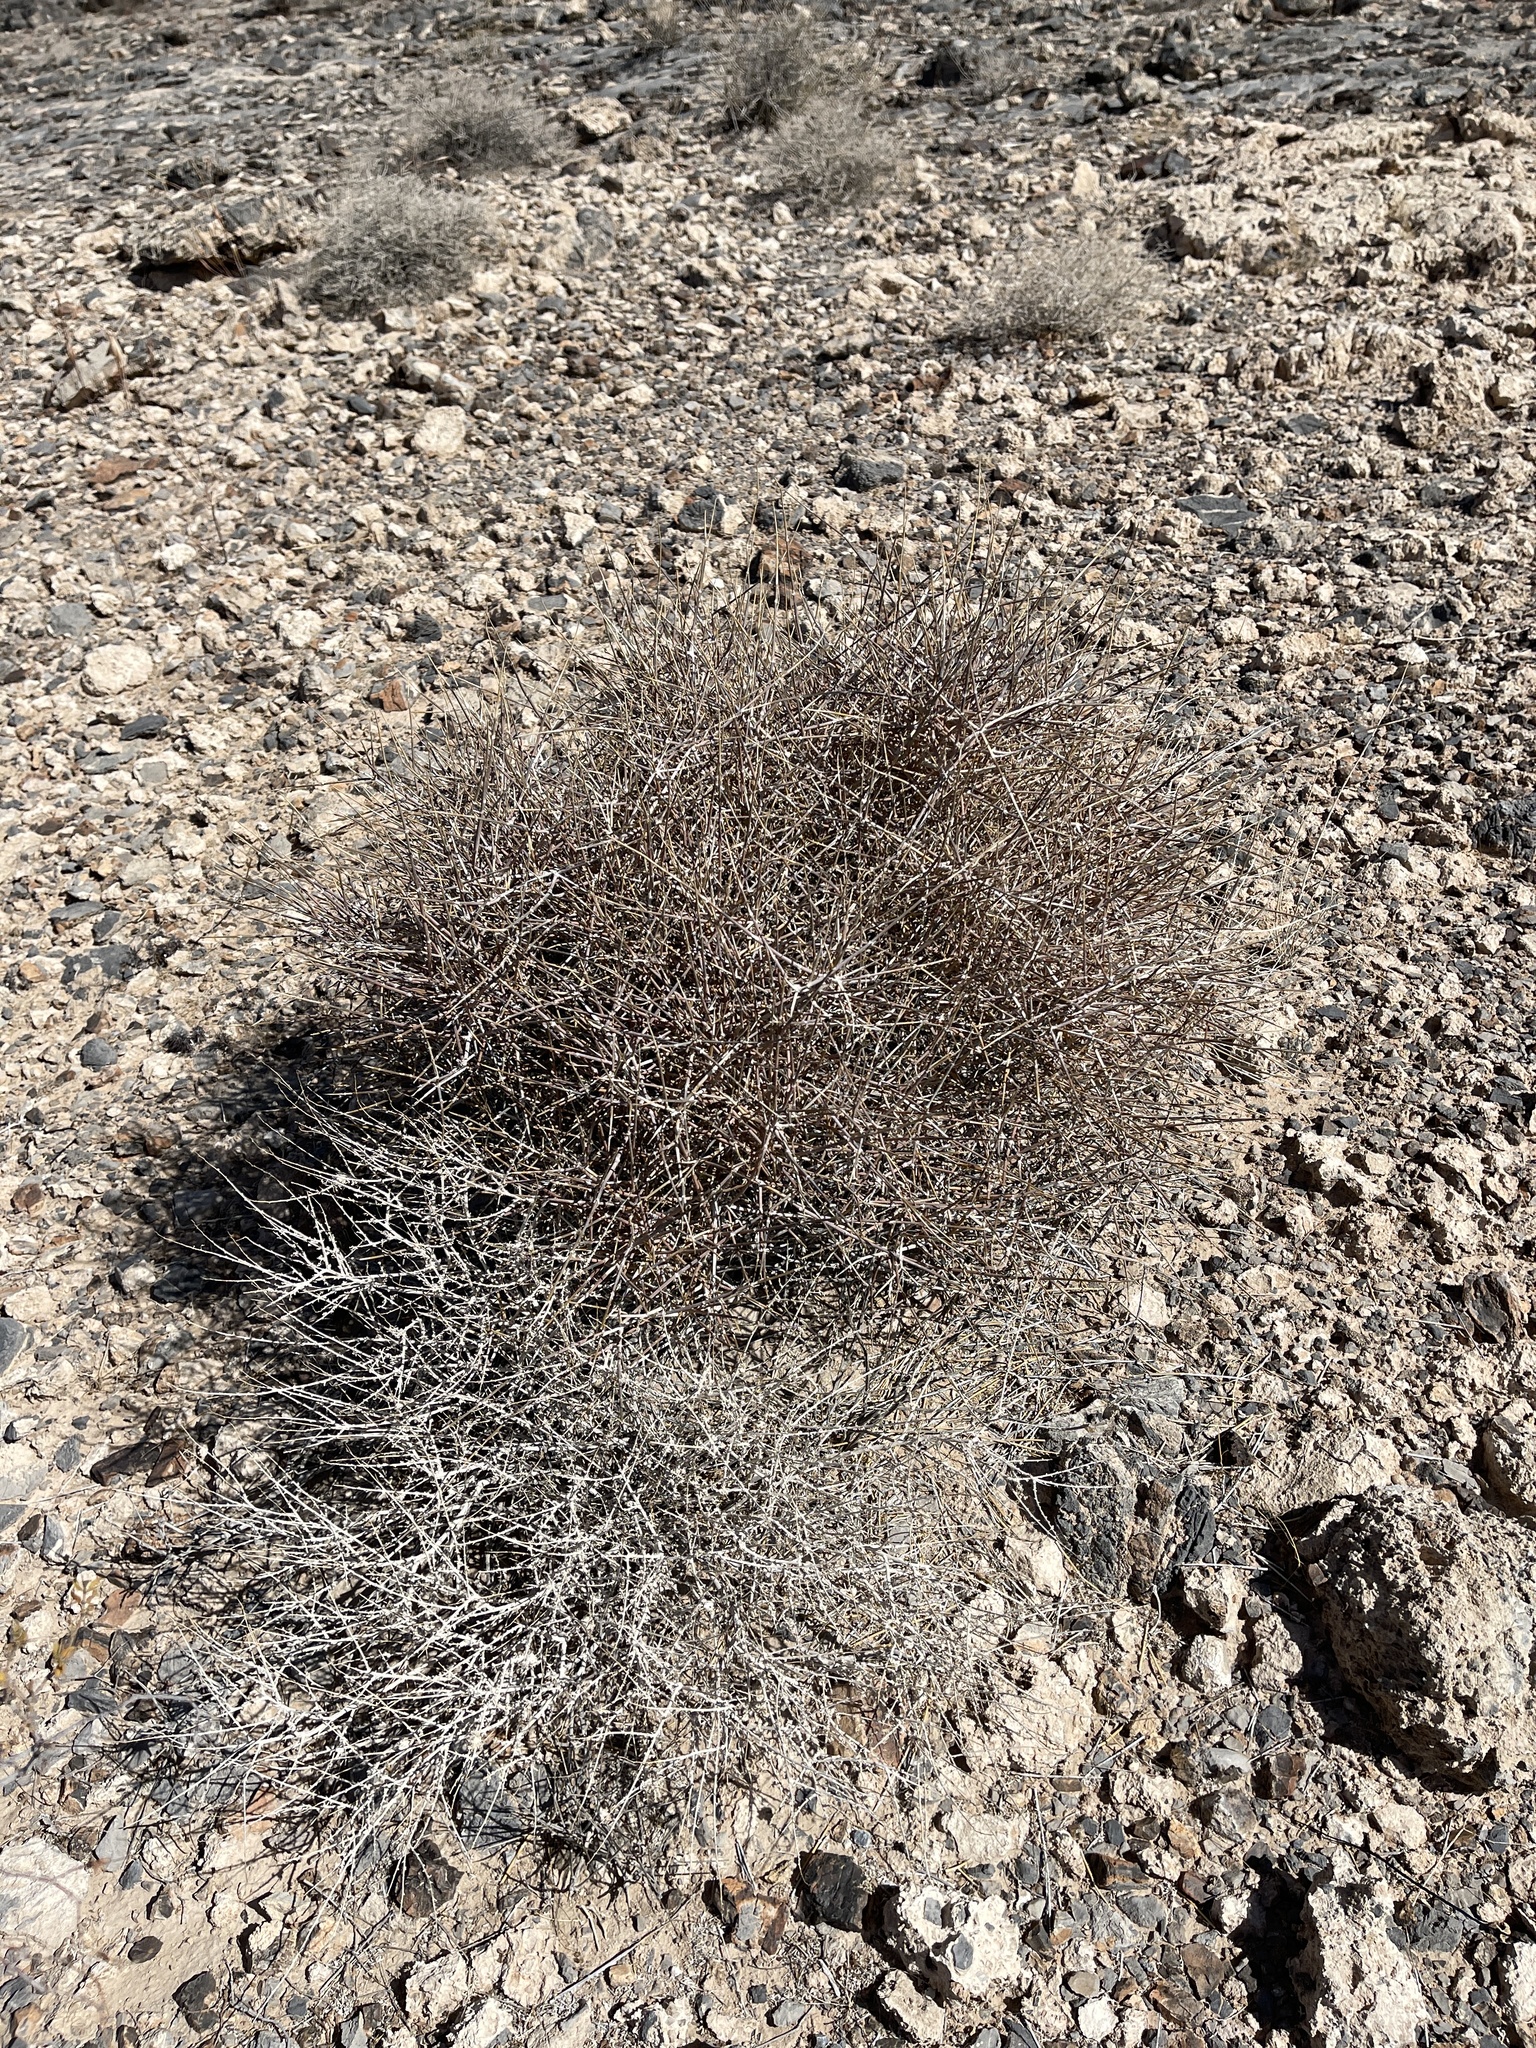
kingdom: Plantae
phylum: Tracheophyta
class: Gnetopsida
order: Ephedrales
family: Ephedraceae
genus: Ephedra
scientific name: Ephedra nevadensis
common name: Gray ephedra
